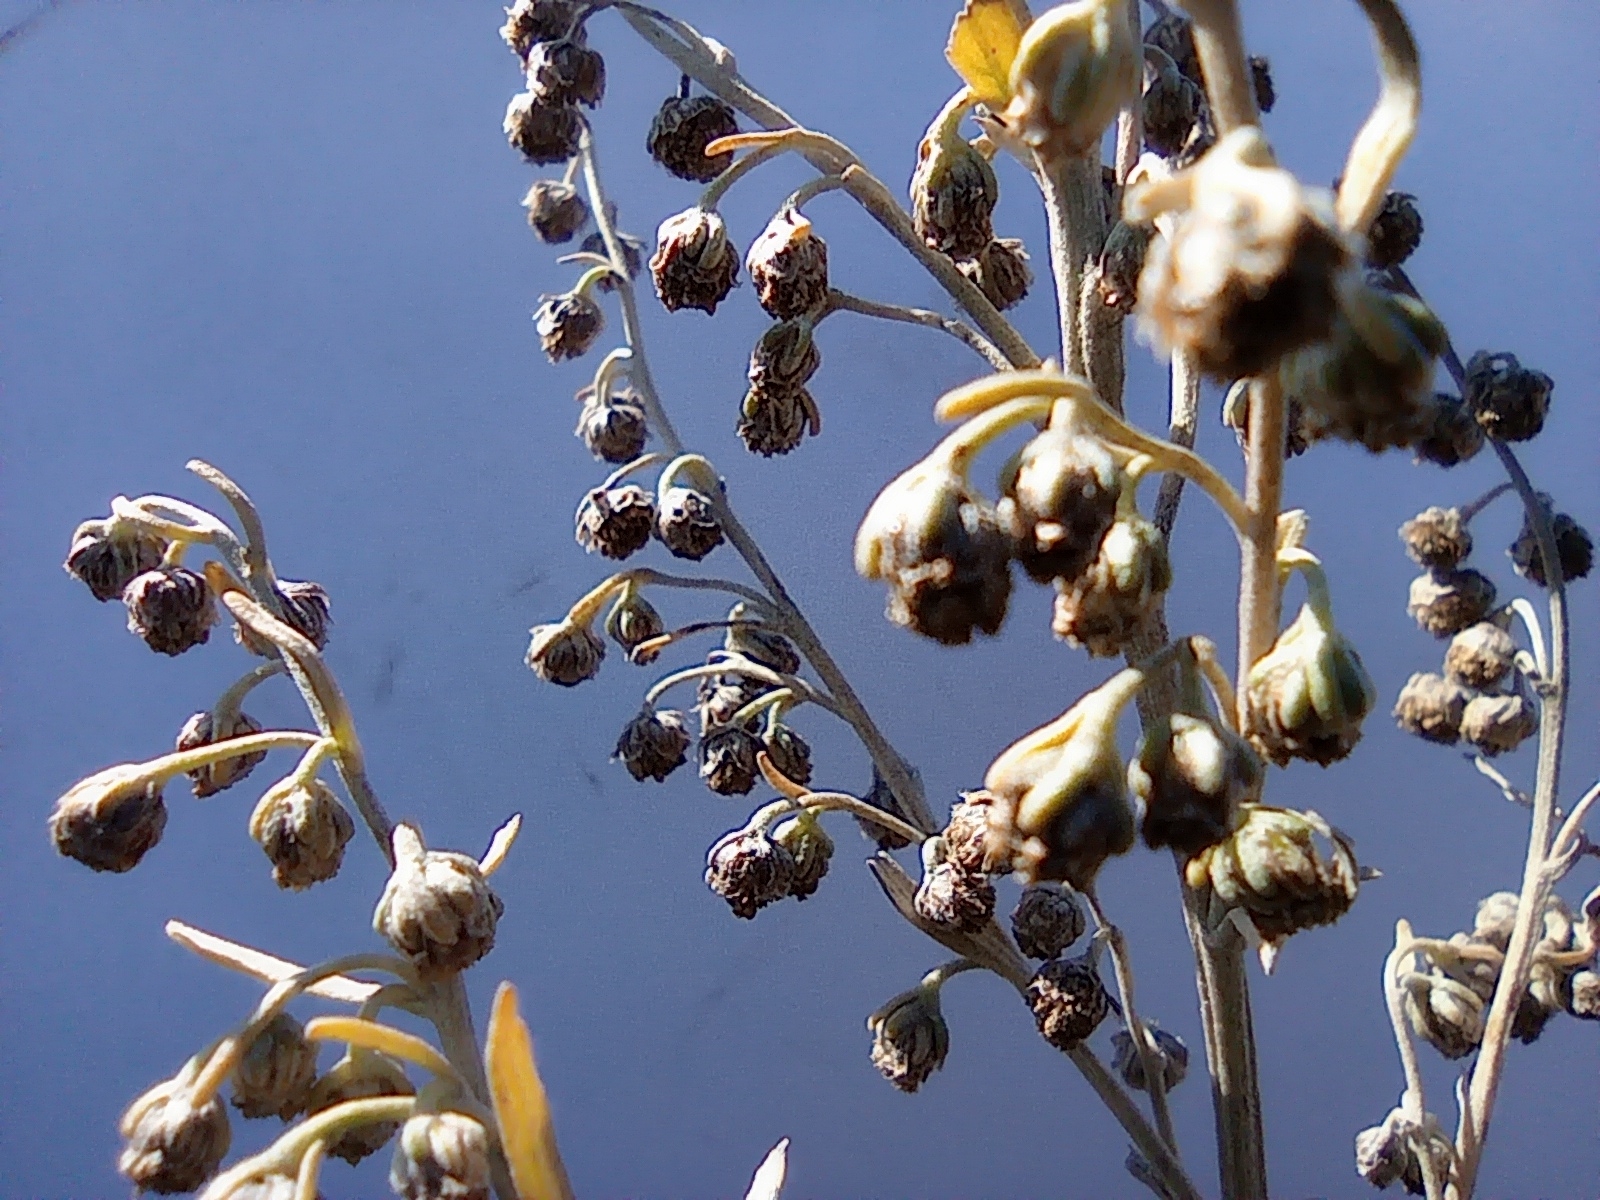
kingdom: Plantae
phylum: Tracheophyta
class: Magnoliopsida
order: Asterales
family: Asteraceae
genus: Artemisia
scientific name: Artemisia absinthium
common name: Wormwood
